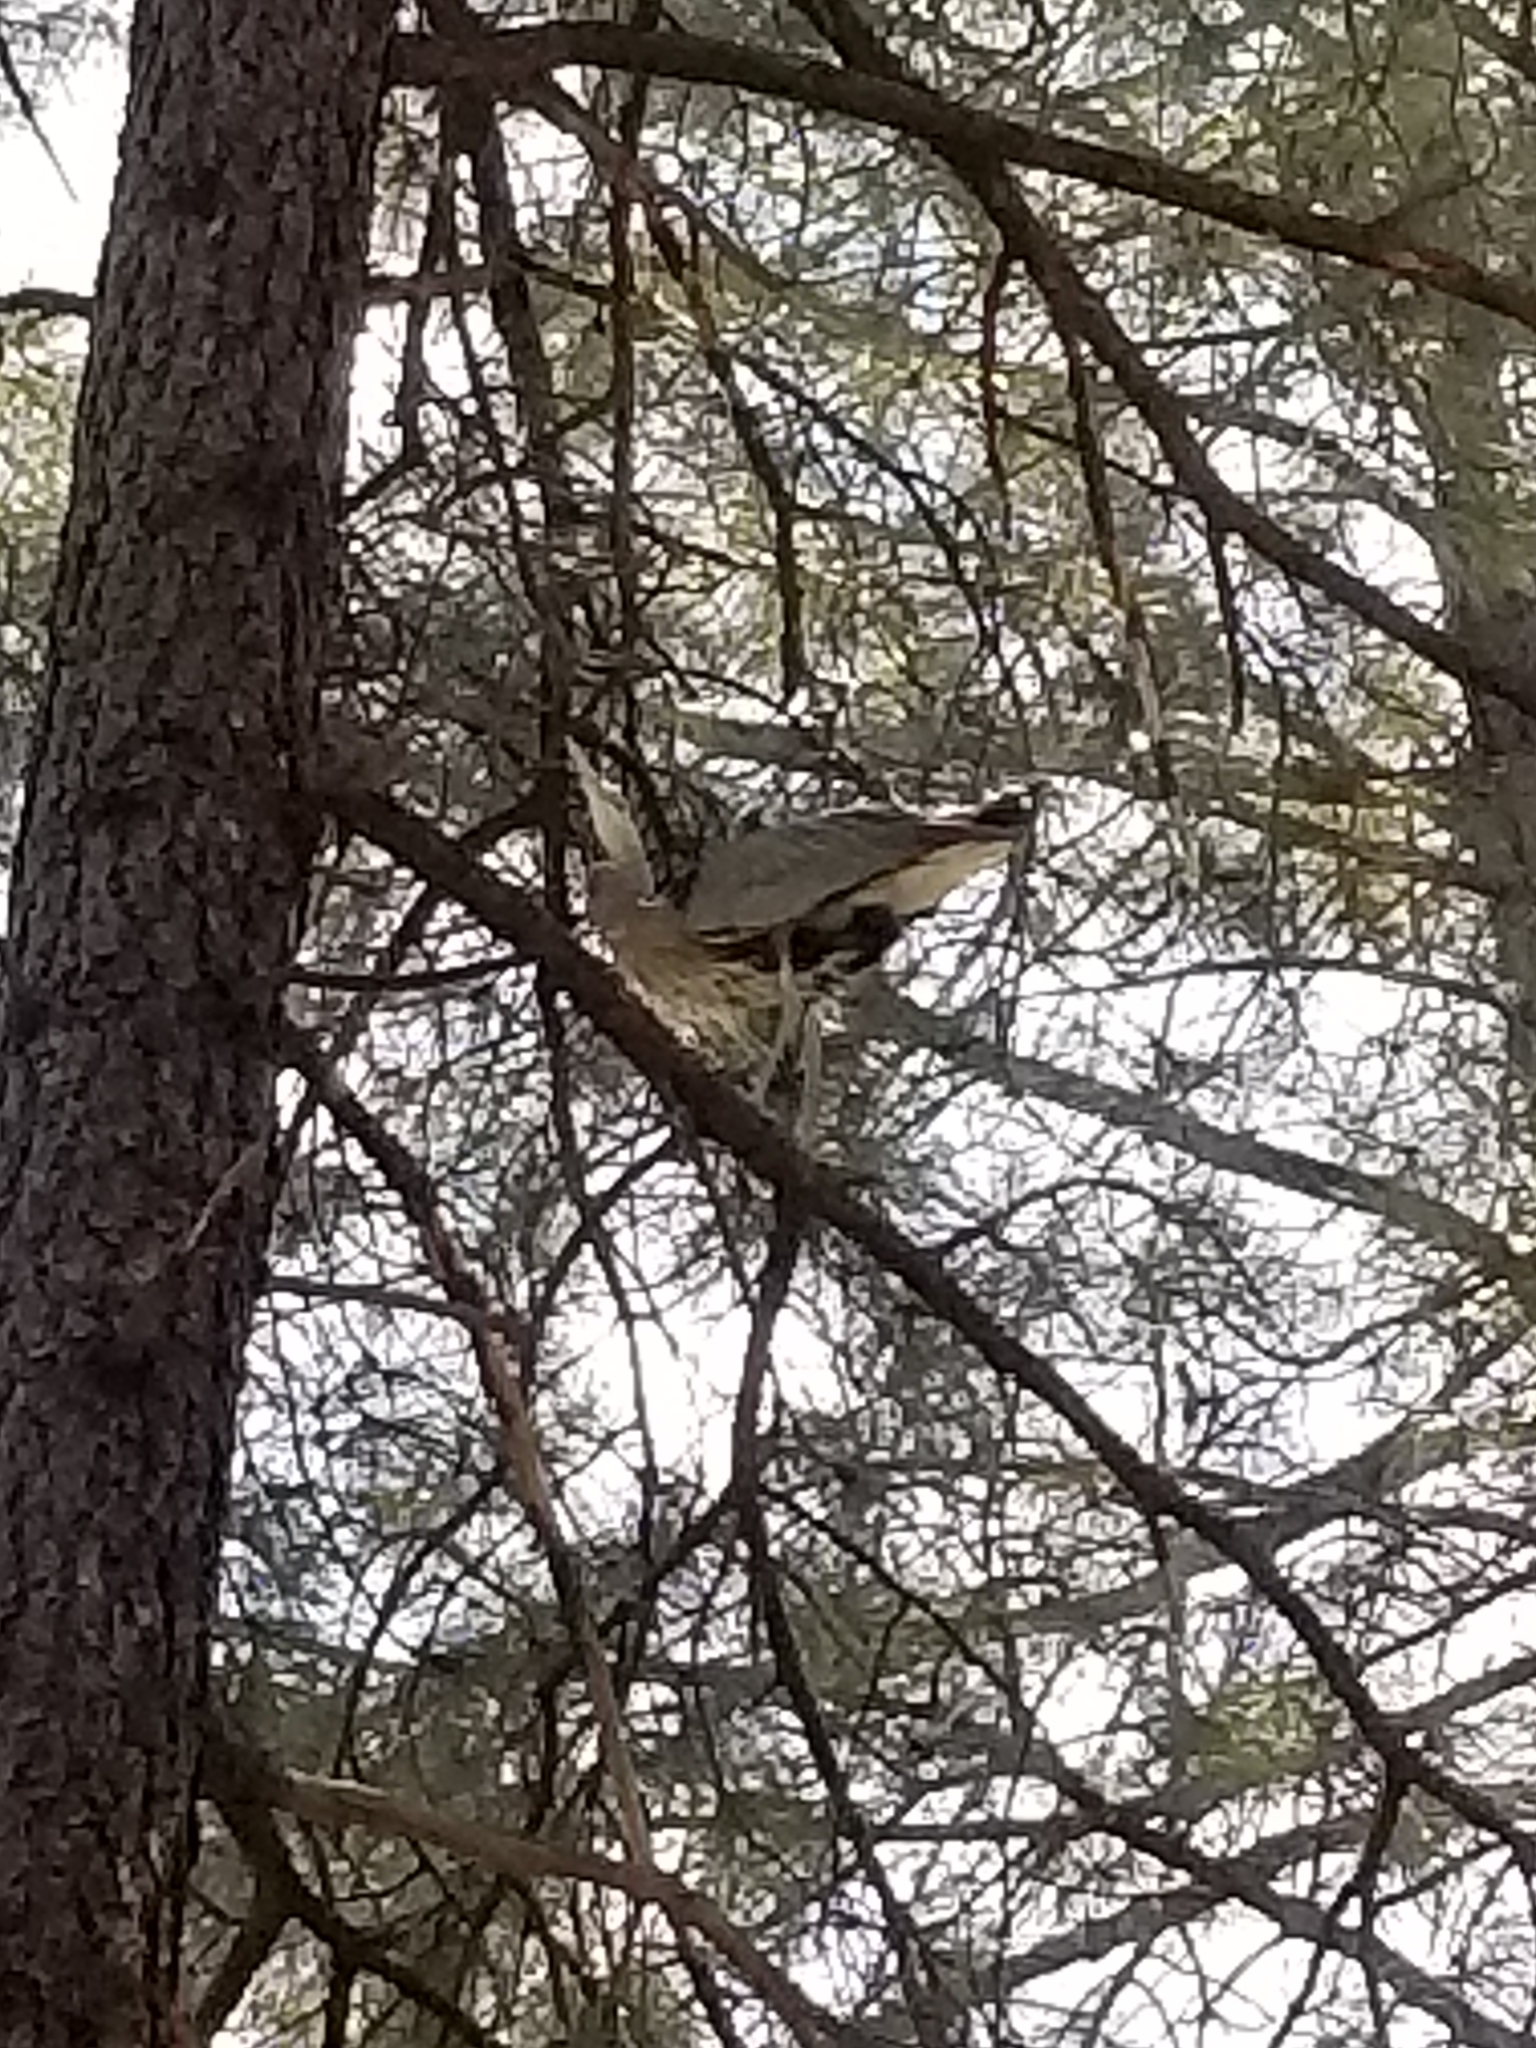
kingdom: Animalia
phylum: Chordata
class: Aves
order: Pelecaniformes
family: Ardeidae
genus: Ardea
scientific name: Ardea herodias
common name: Great blue heron
